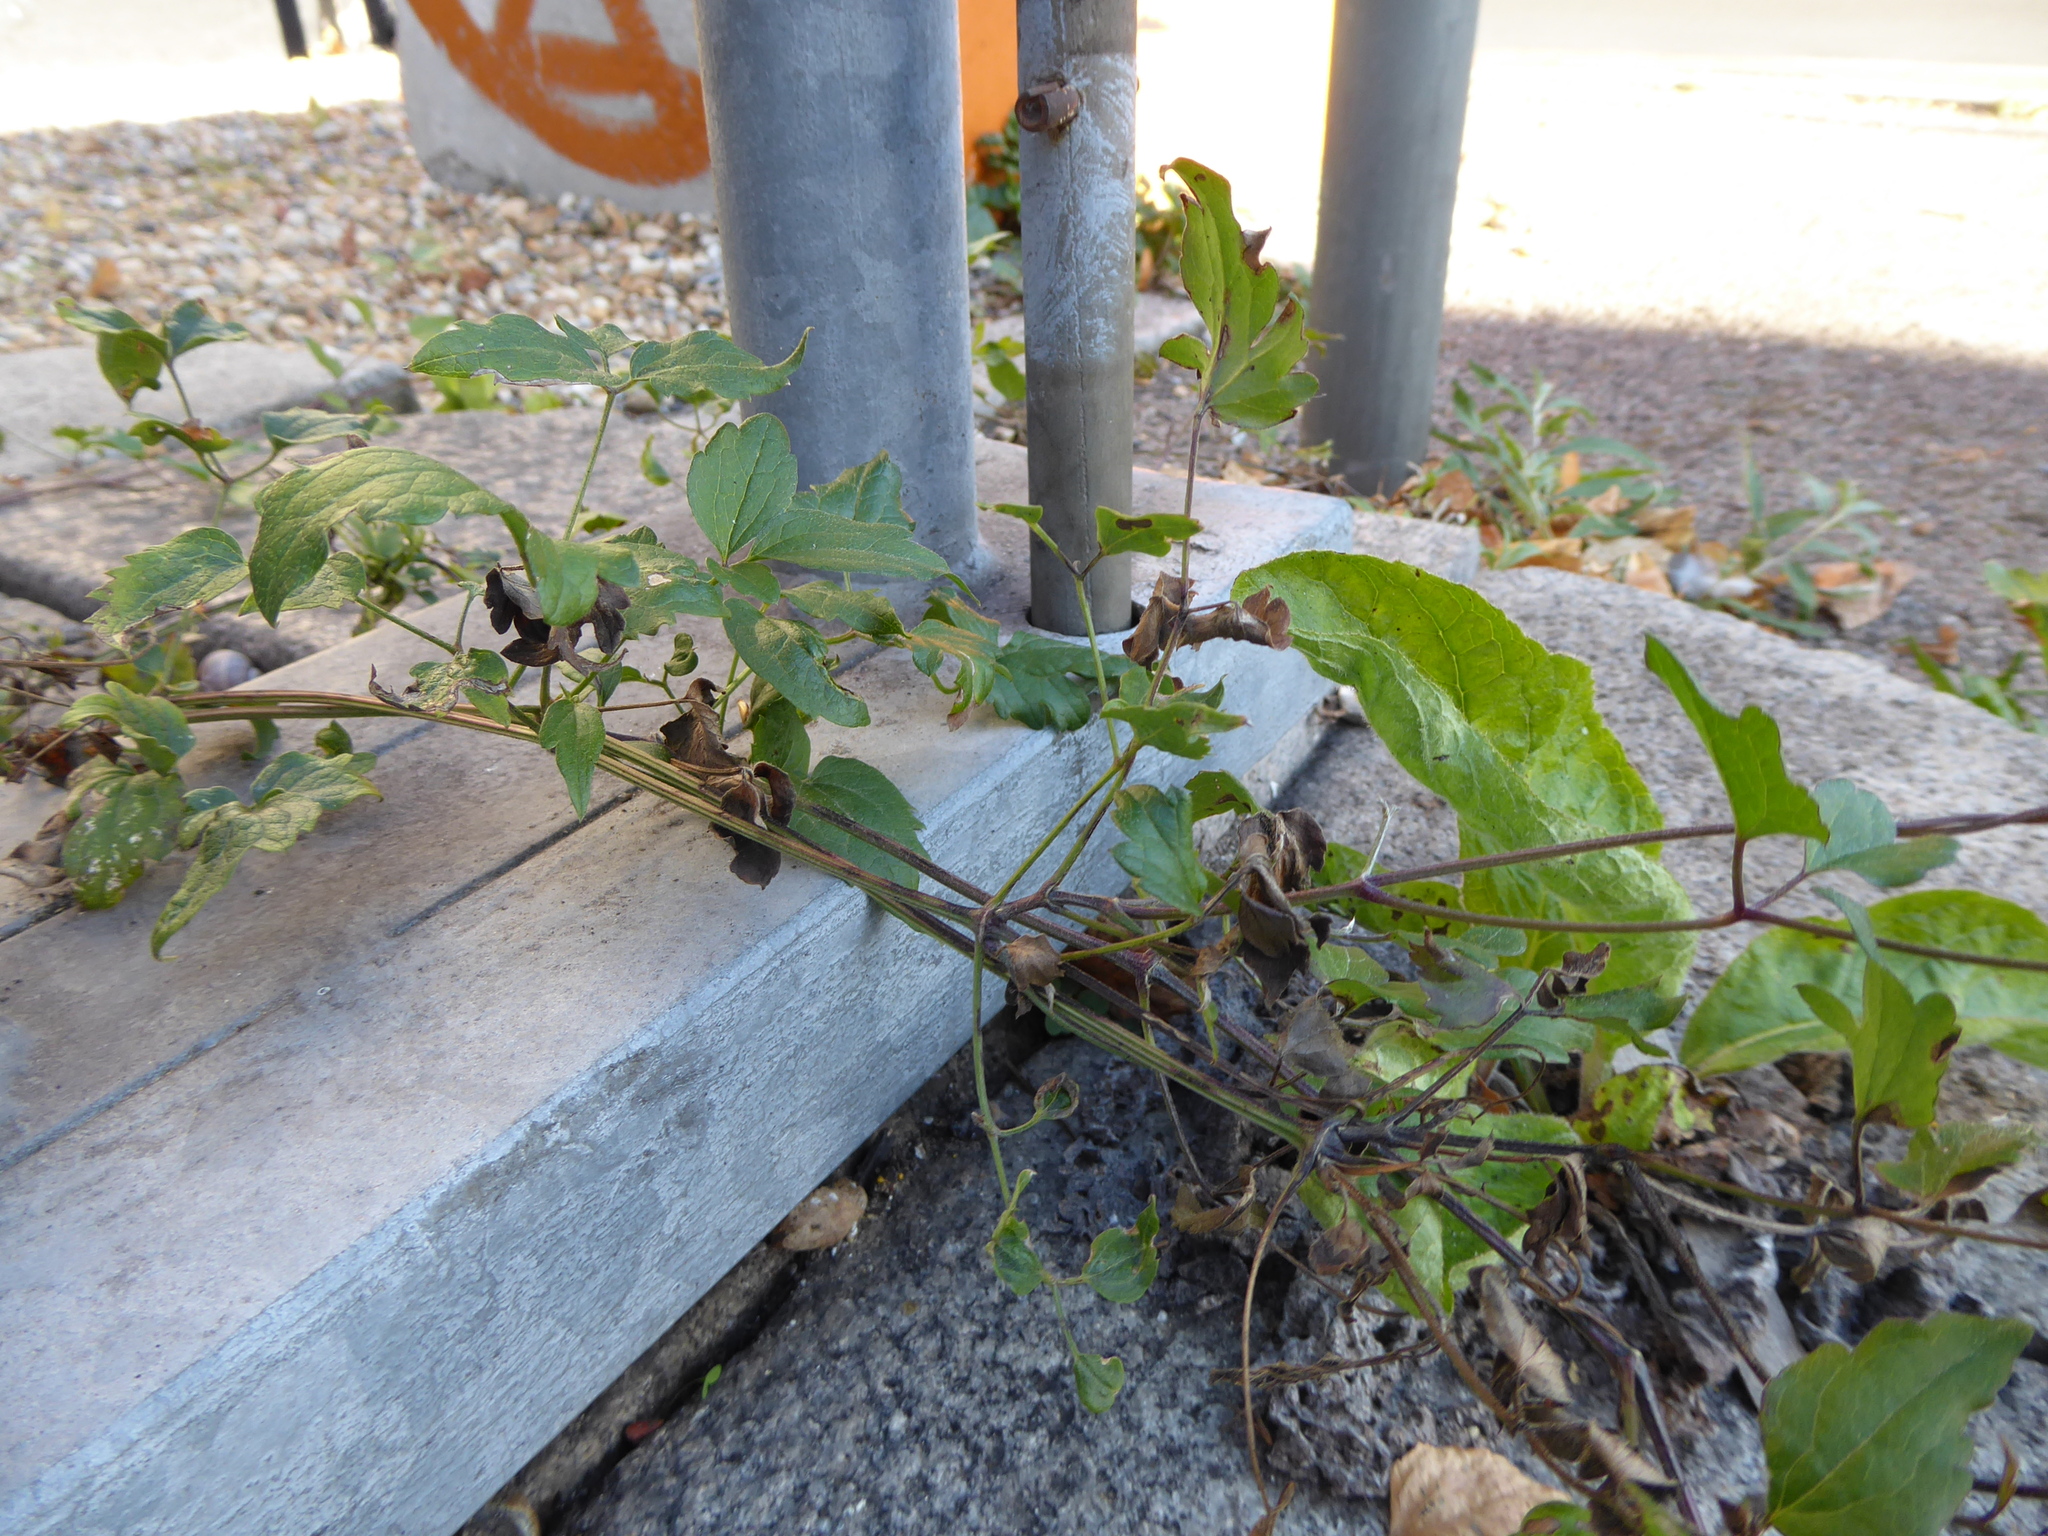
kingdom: Plantae
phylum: Tracheophyta
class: Magnoliopsida
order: Ranunculales
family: Ranunculaceae
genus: Clematis
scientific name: Clematis vitalba
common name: Evergreen clematis
